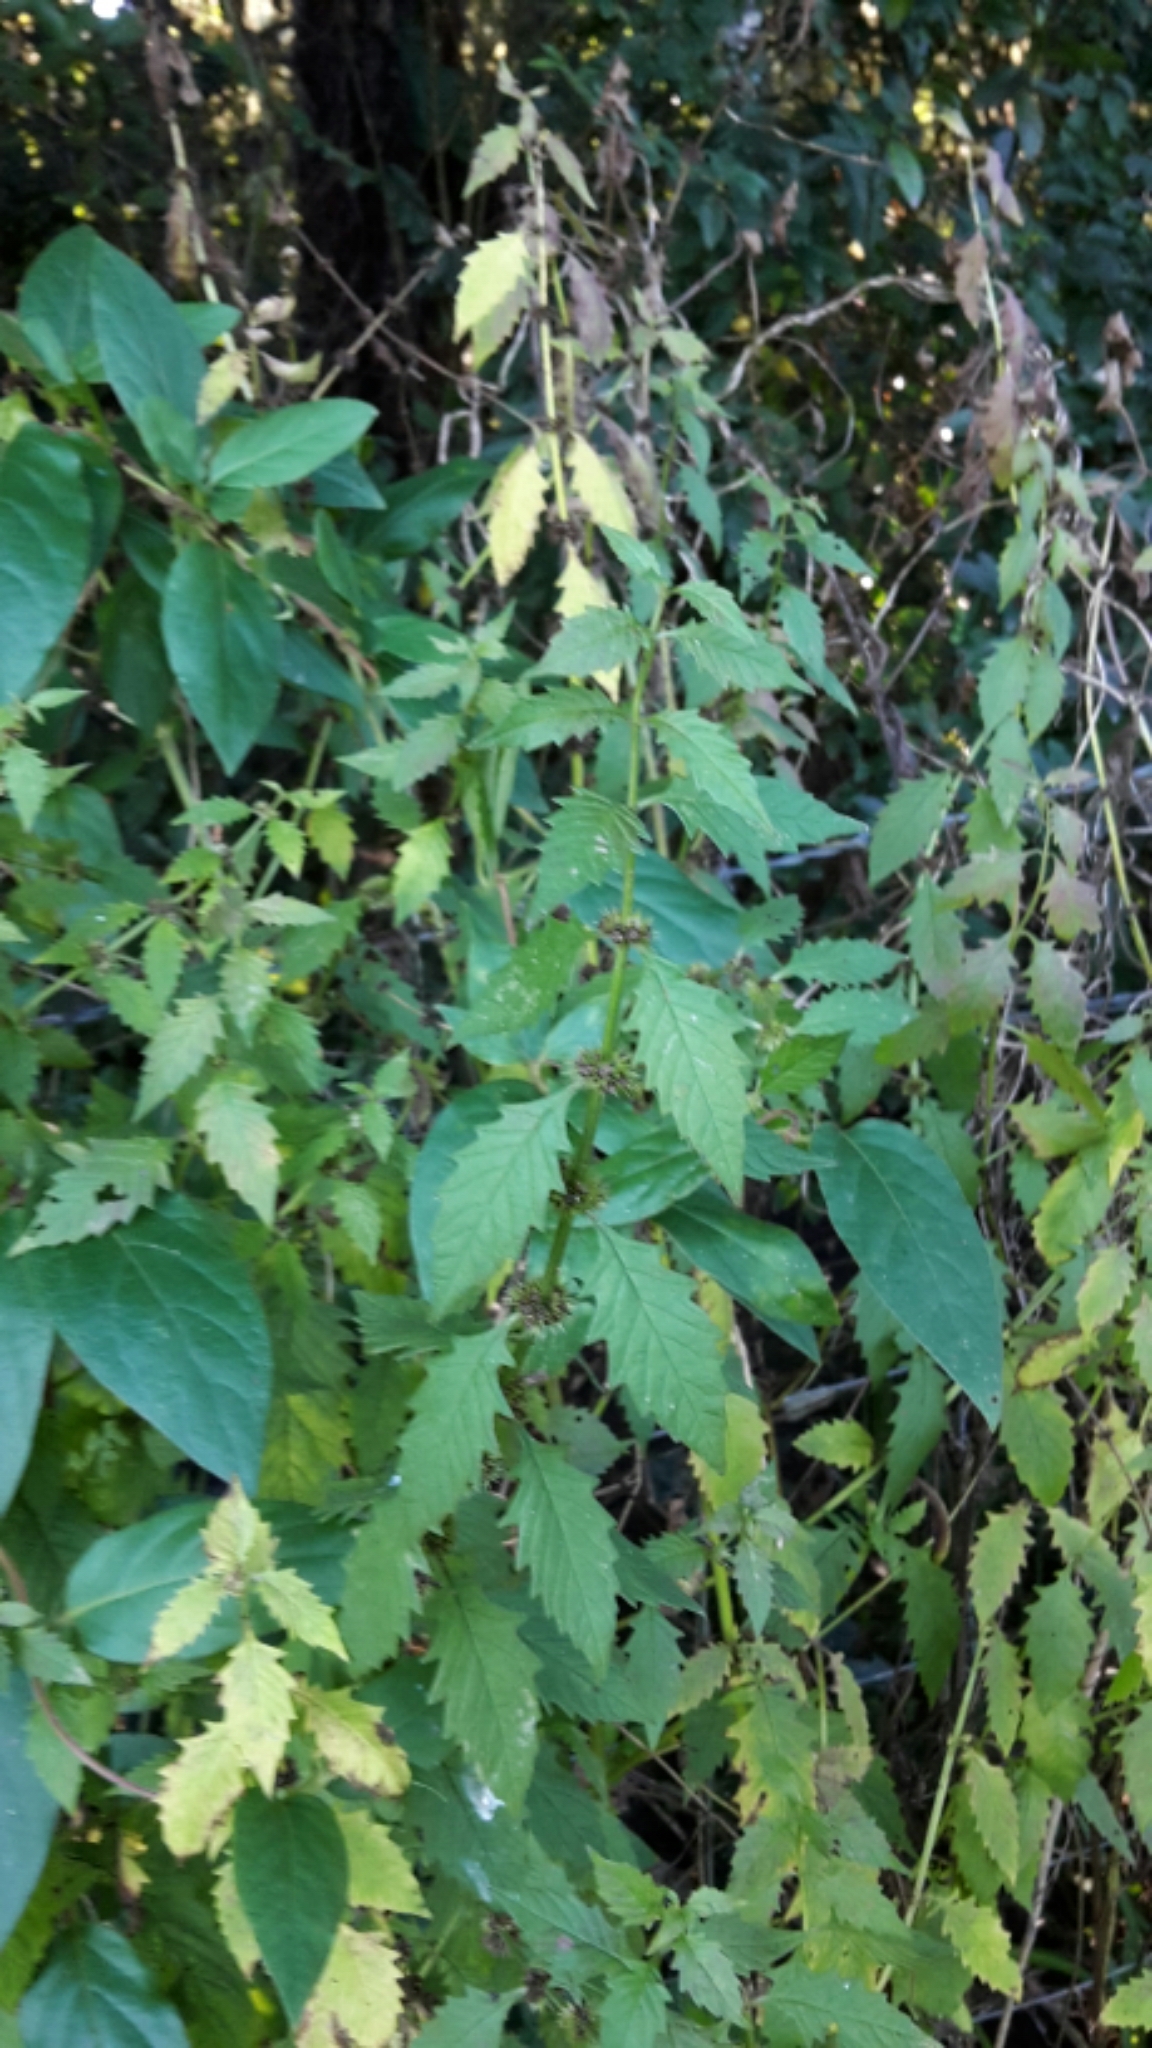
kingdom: Plantae
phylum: Tracheophyta
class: Magnoliopsida
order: Lamiales
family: Lamiaceae
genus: Lycopus
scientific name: Lycopus europaeus
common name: European bugleweed
